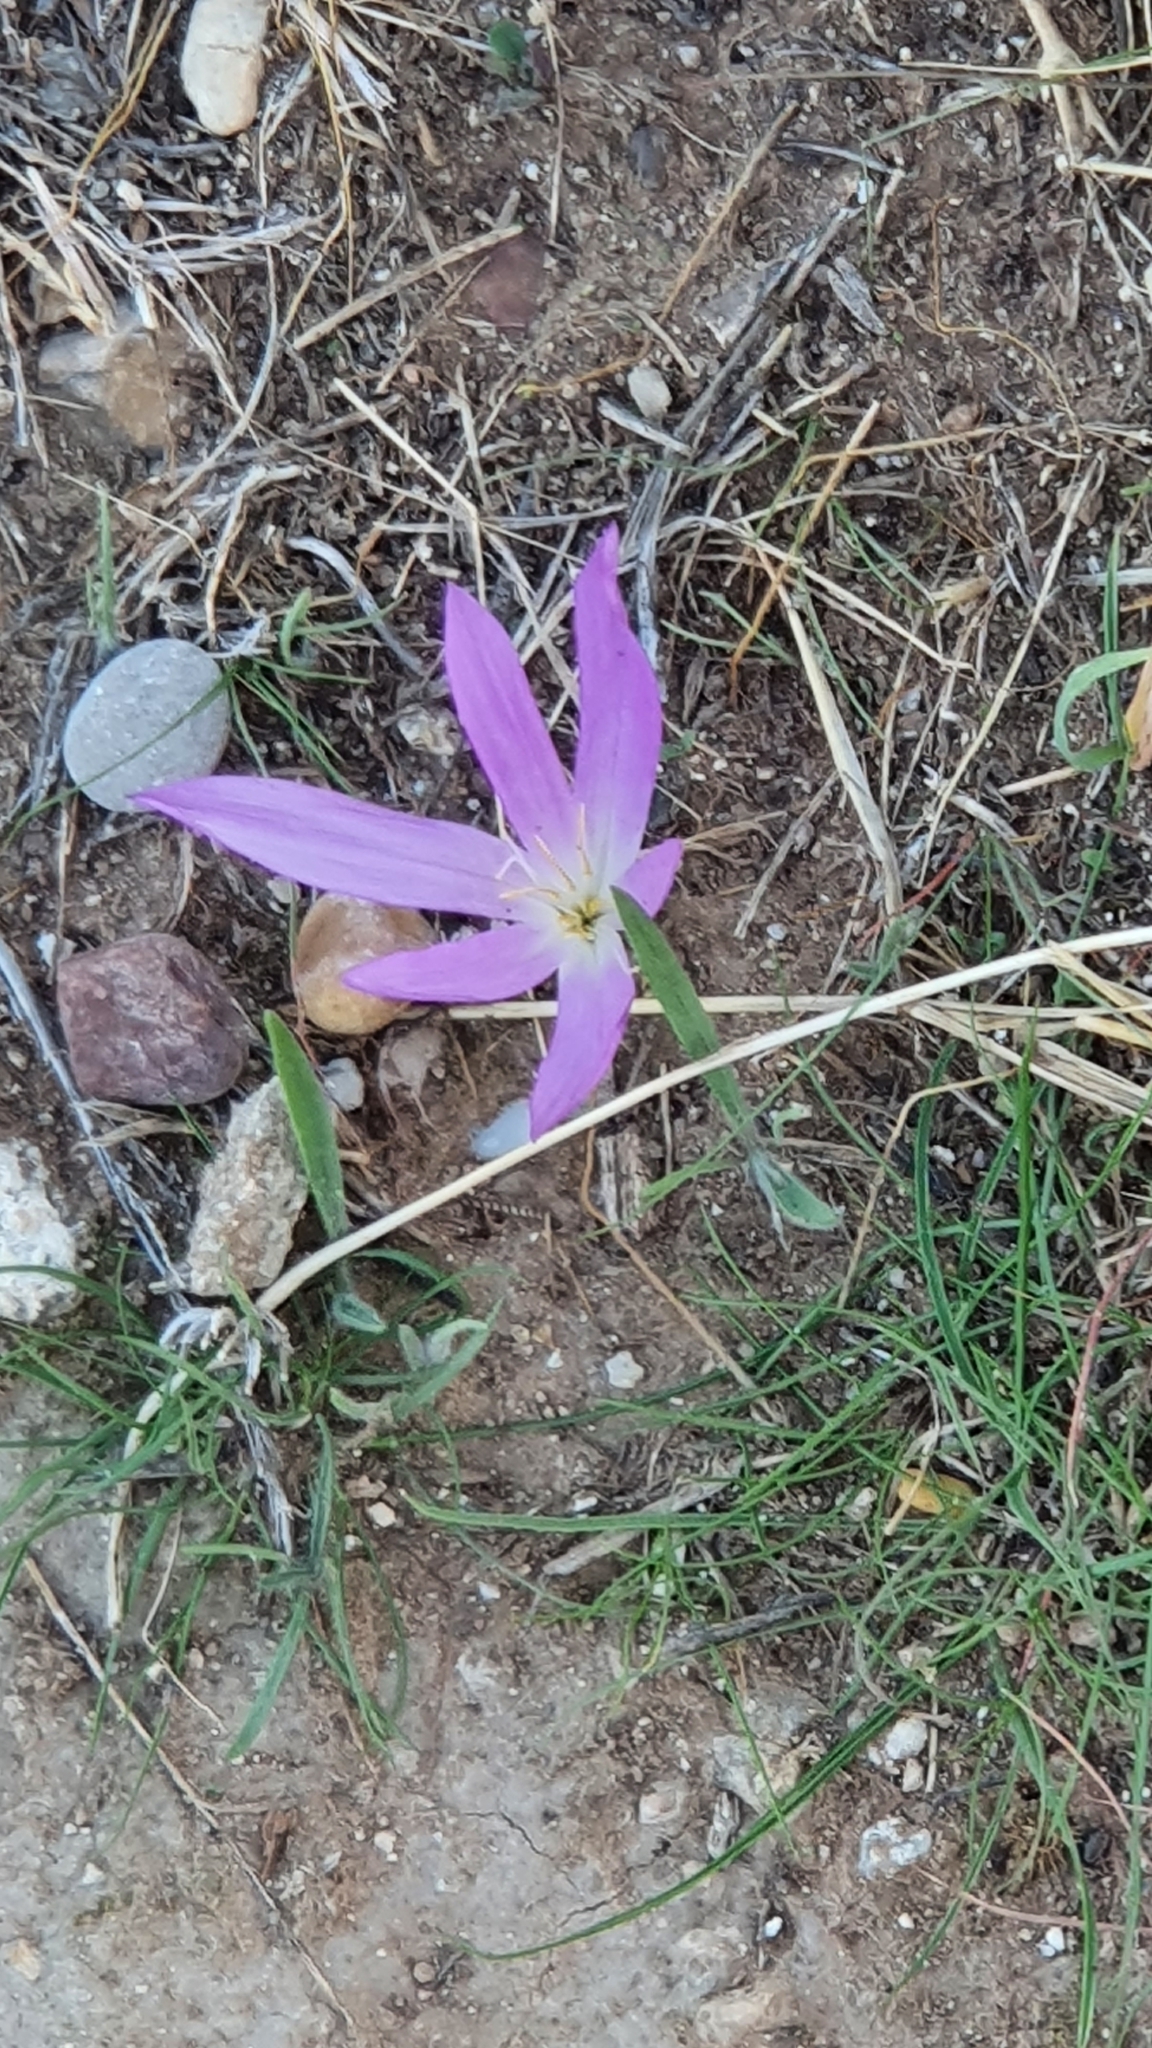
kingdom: Plantae
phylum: Tracheophyta
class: Liliopsida
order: Liliales
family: Colchicaceae
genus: Colchicum
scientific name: Colchicum montanum
